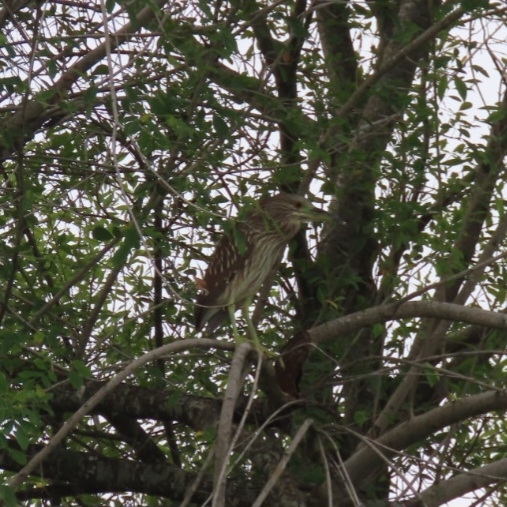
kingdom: Animalia
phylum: Chordata
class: Aves
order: Pelecaniformes
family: Ardeidae
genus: Nycticorax
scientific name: Nycticorax nycticorax
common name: Black-crowned night heron
